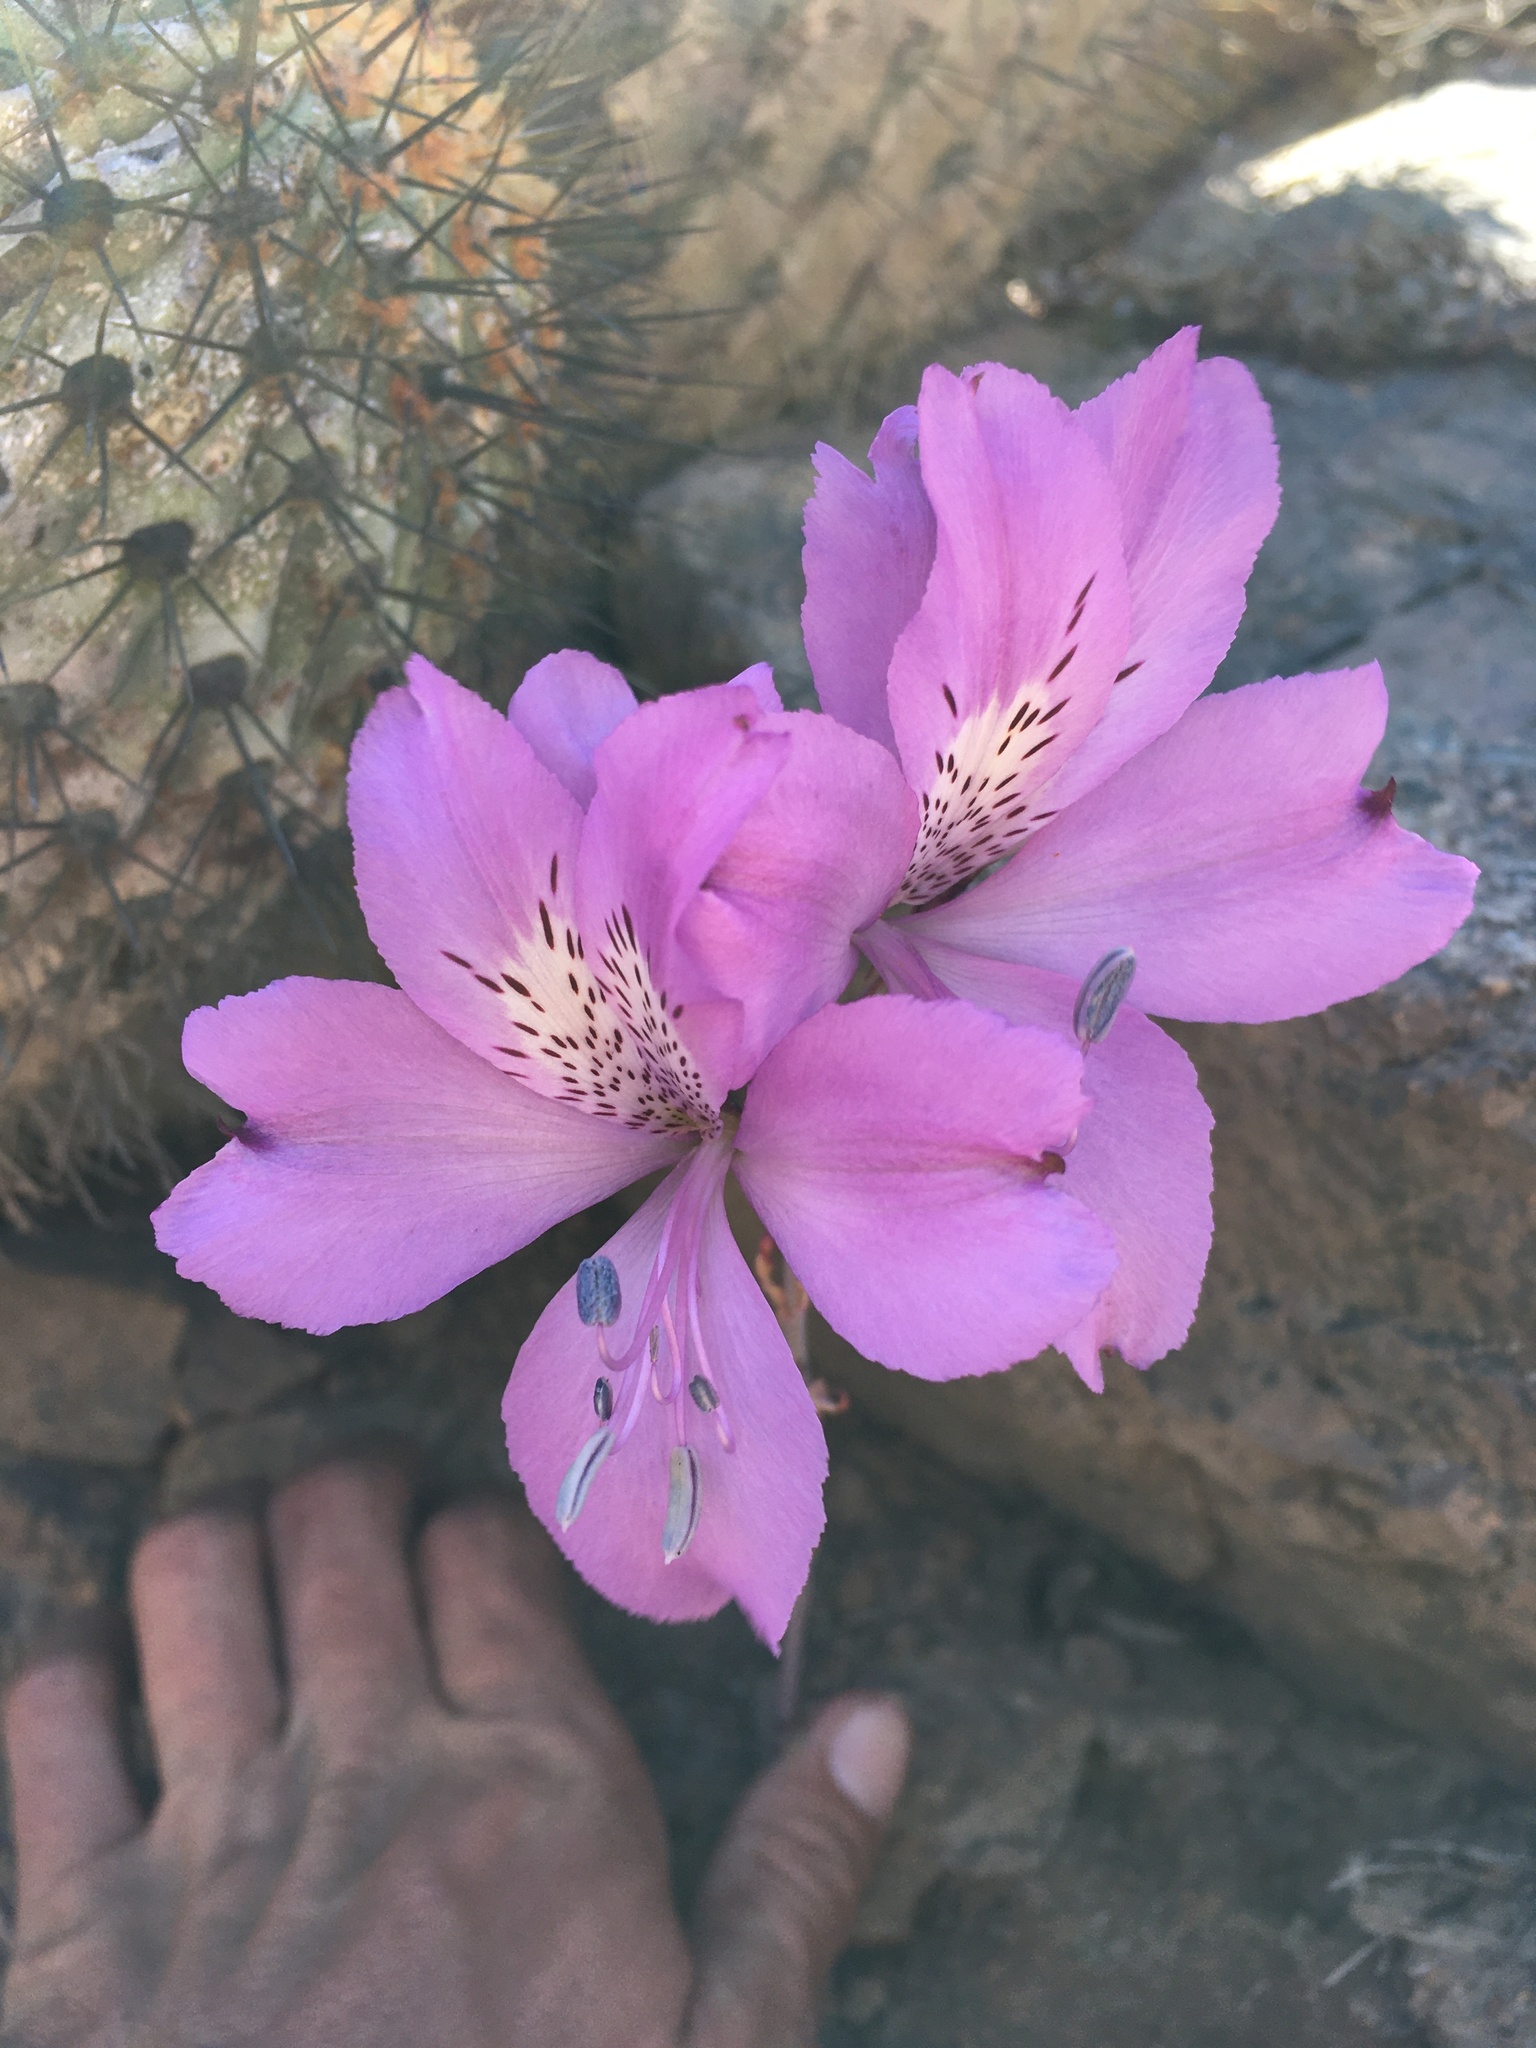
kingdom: Plantae
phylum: Tracheophyta
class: Liliopsida
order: Liliales
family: Alstroemeriaceae
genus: Alstroemeria
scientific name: Alstroemeria violacea
